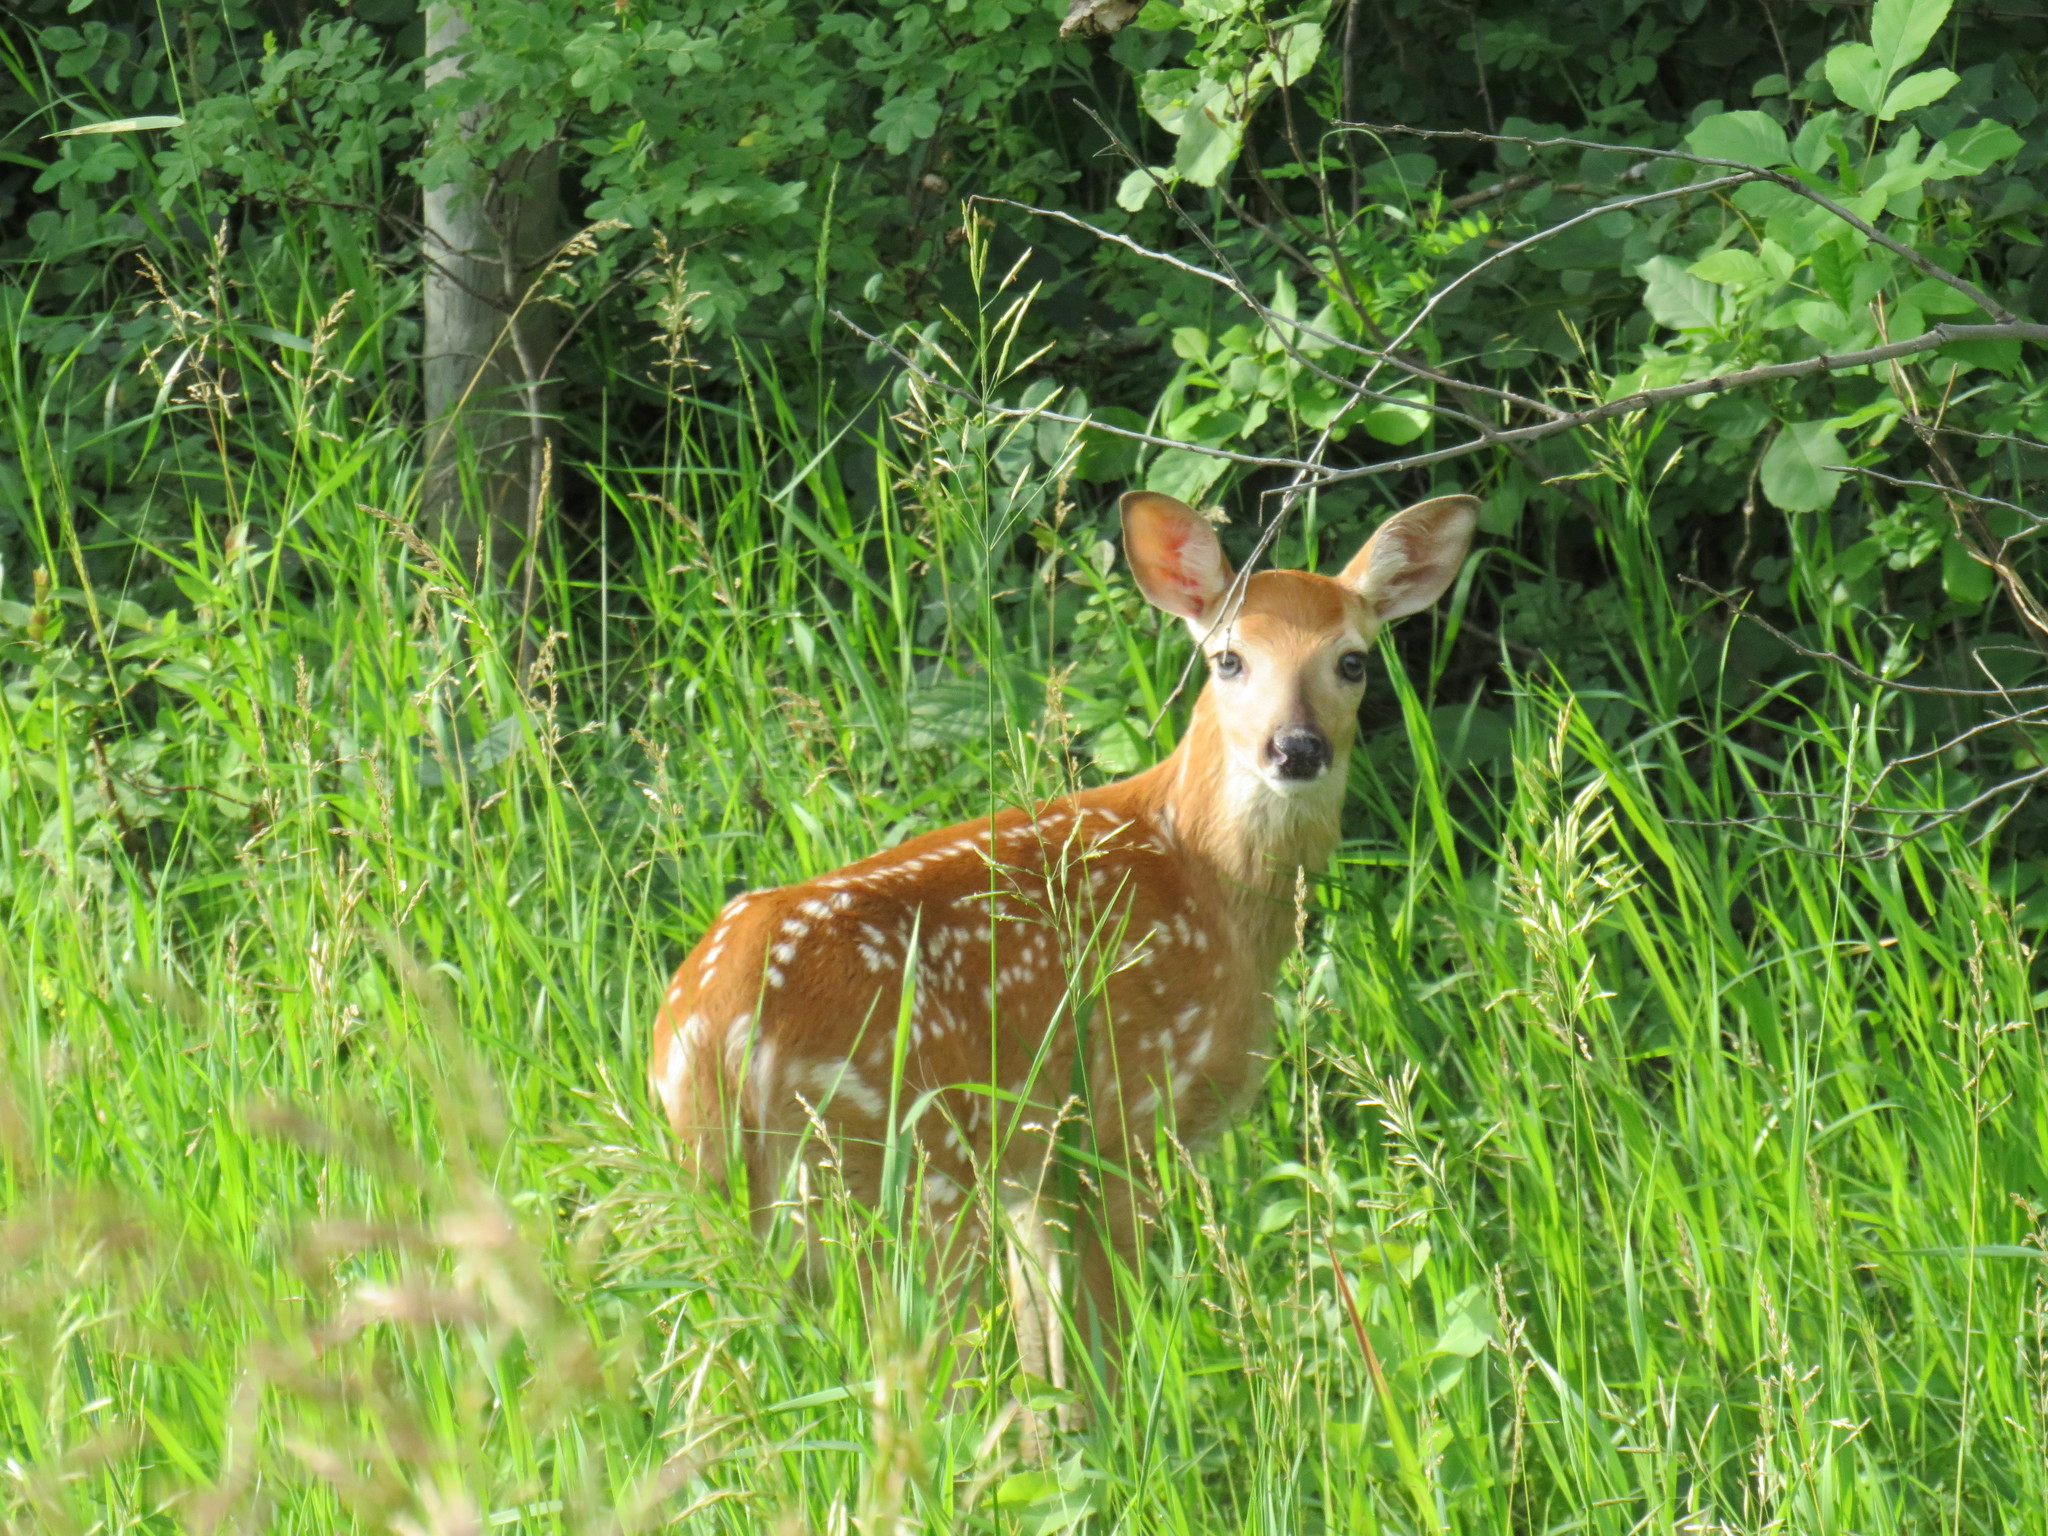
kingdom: Animalia
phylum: Chordata
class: Mammalia
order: Artiodactyla
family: Cervidae
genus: Odocoileus
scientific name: Odocoileus virginianus
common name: White-tailed deer
